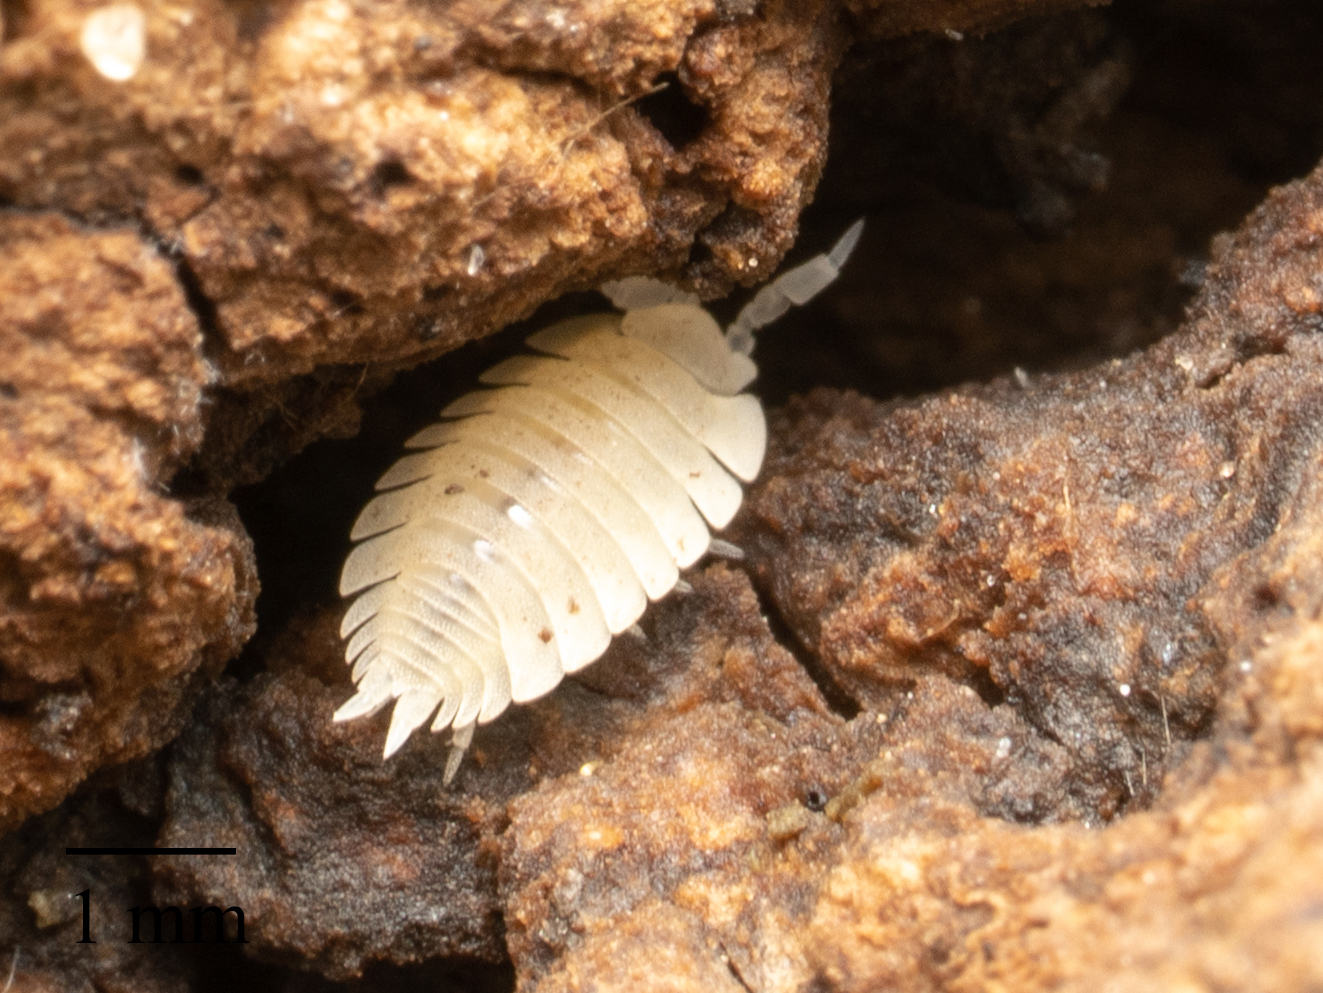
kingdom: Animalia
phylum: Arthropoda
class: Malacostraca
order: Isopoda
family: Platyarthridae
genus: Platyarthrus
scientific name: Platyarthrus hoffmannseggii
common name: Ant woodlouse
